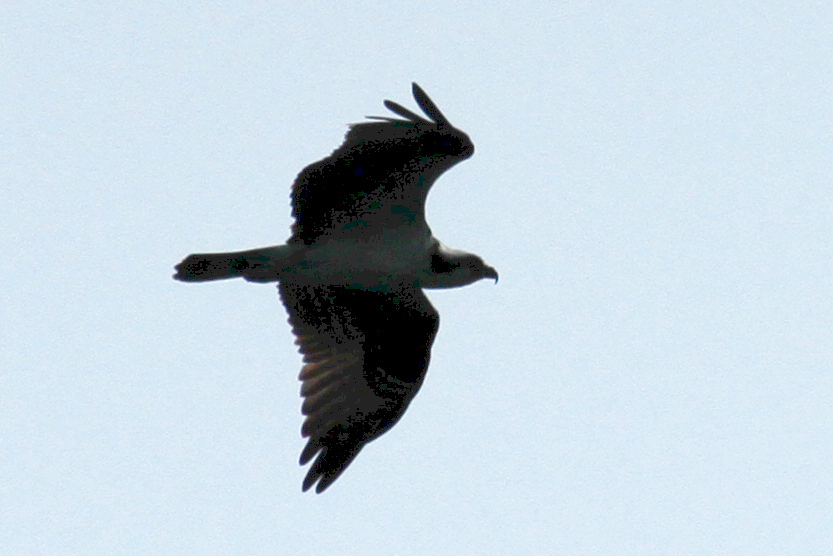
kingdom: Animalia
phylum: Chordata
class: Aves
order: Accipitriformes
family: Pandionidae
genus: Pandion
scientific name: Pandion haliaetus
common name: Osprey
